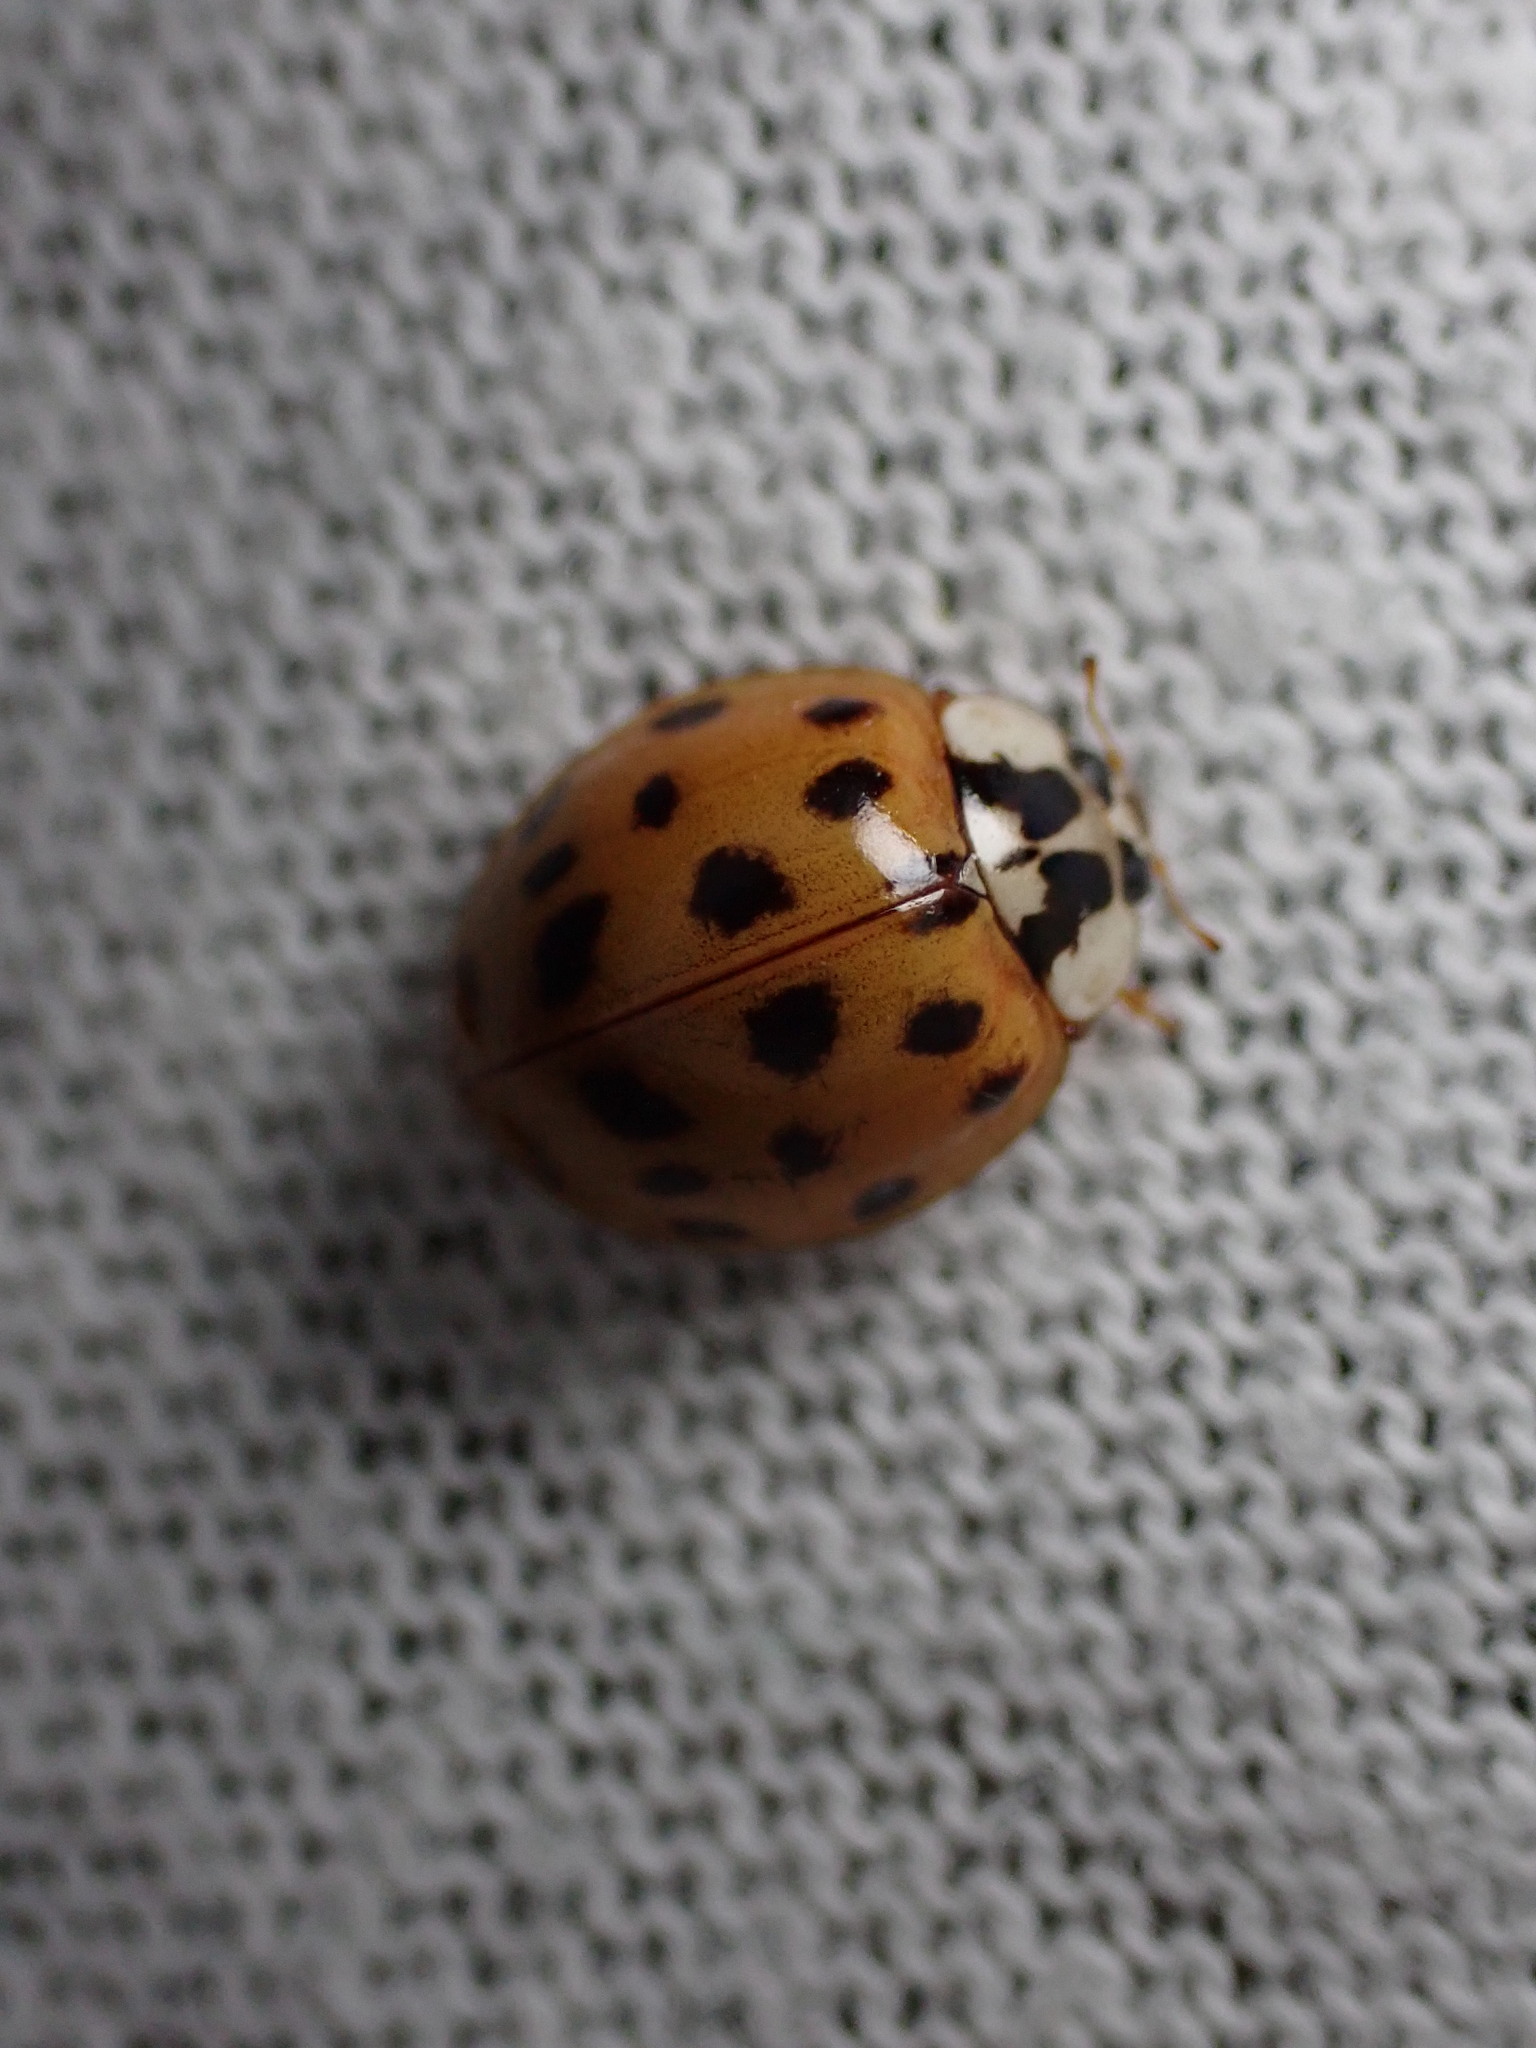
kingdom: Animalia
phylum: Arthropoda
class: Insecta
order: Coleoptera
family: Coccinellidae
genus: Harmonia
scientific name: Harmonia axyridis
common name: Harlequin ladybird
